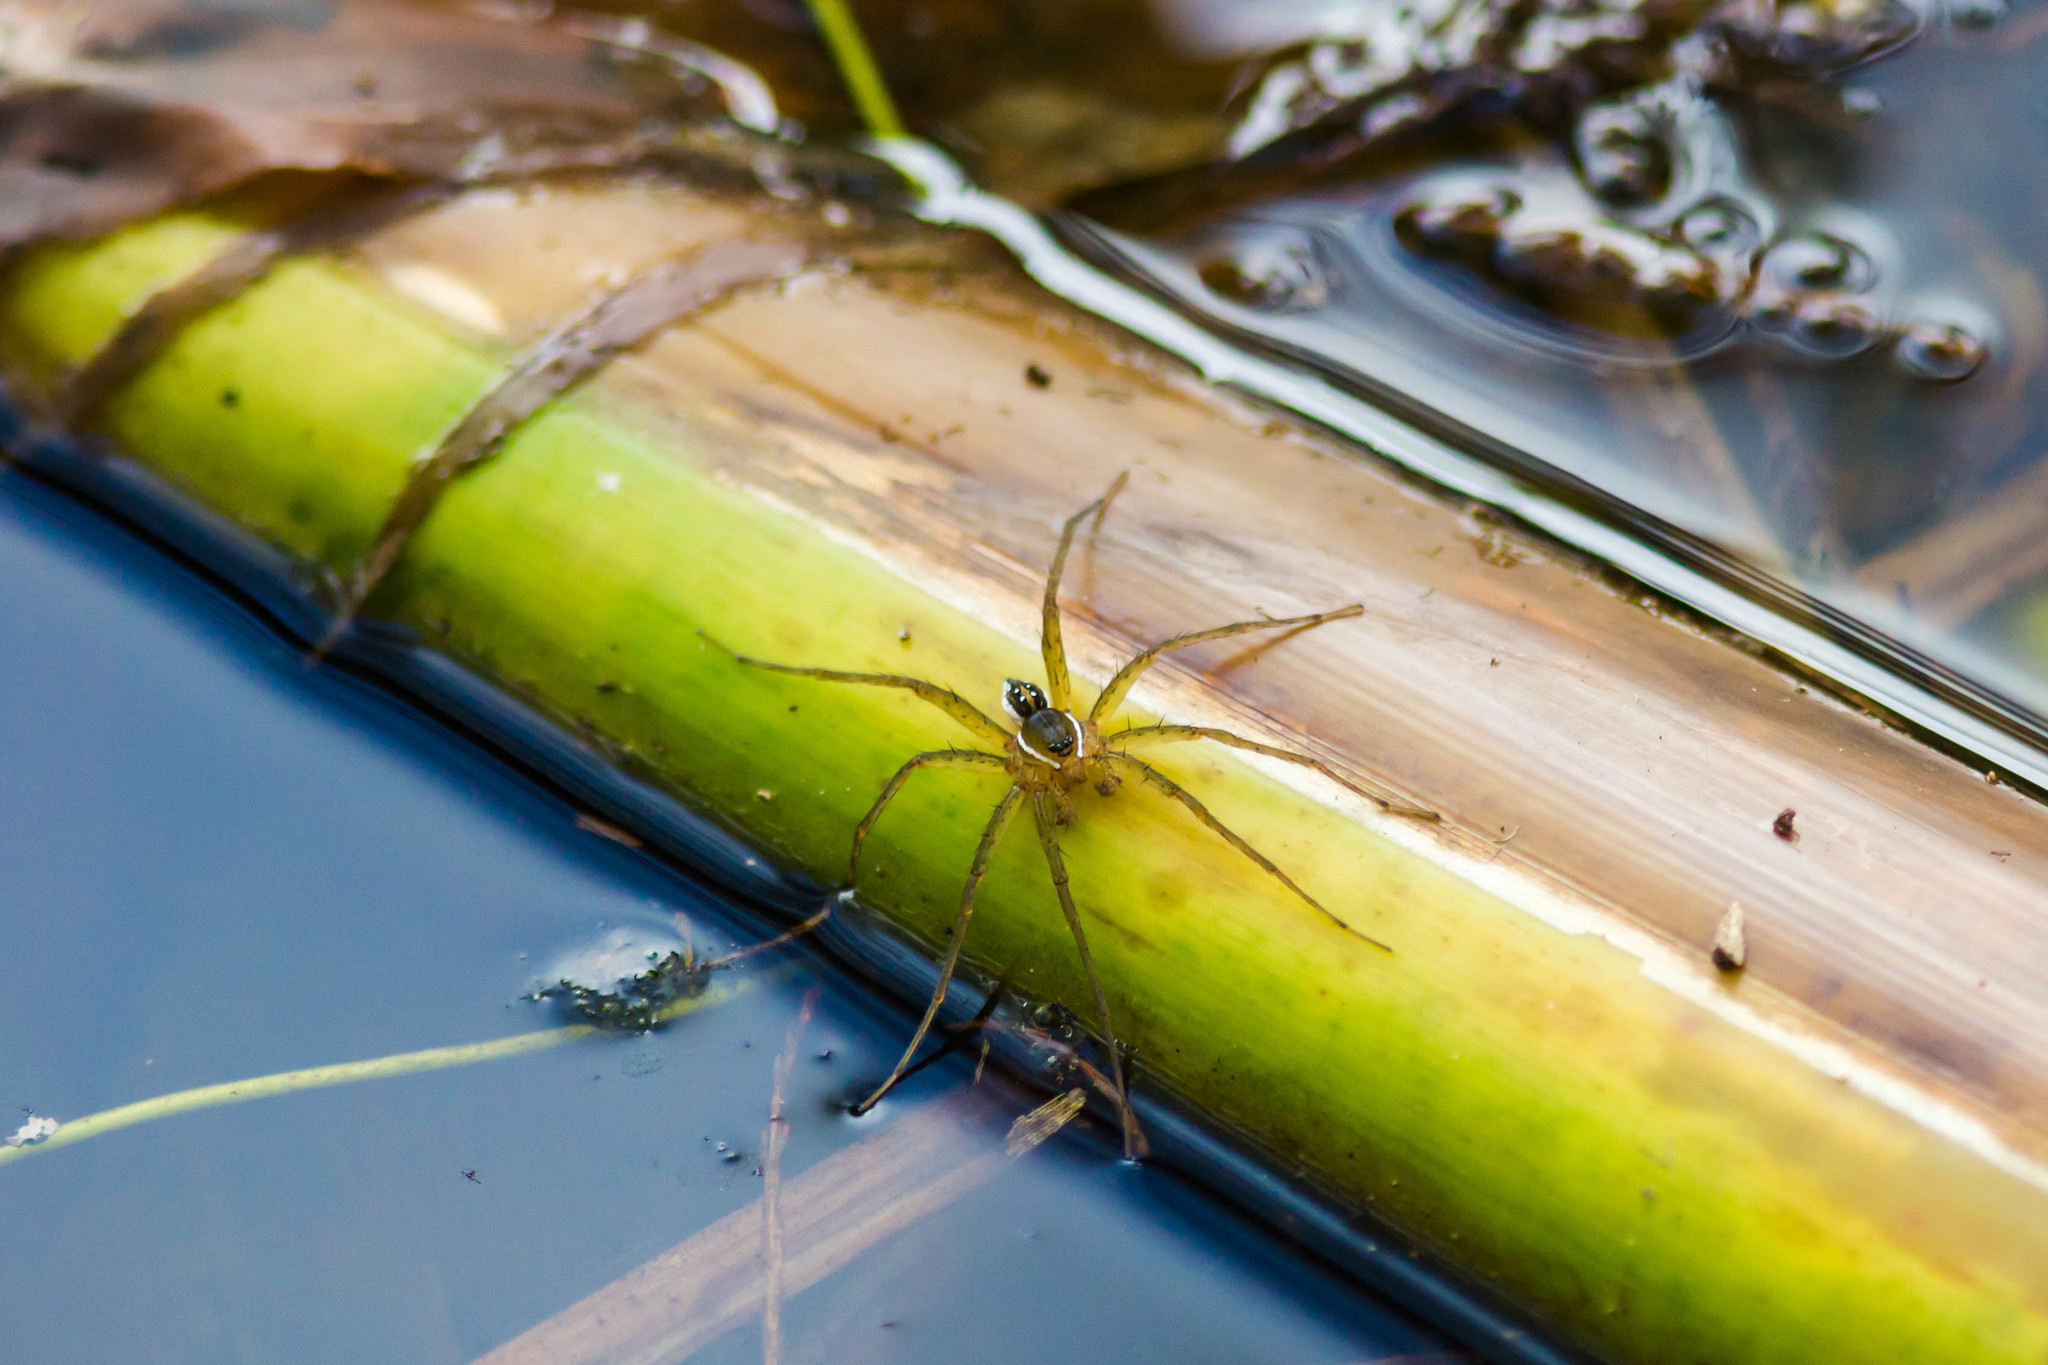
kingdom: Animalia
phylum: Arthropoda
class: Arachnida
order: Araneae
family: Pisauridae
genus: Dolomedes
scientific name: Dolomedes triton
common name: Six-spotted fishing spider
